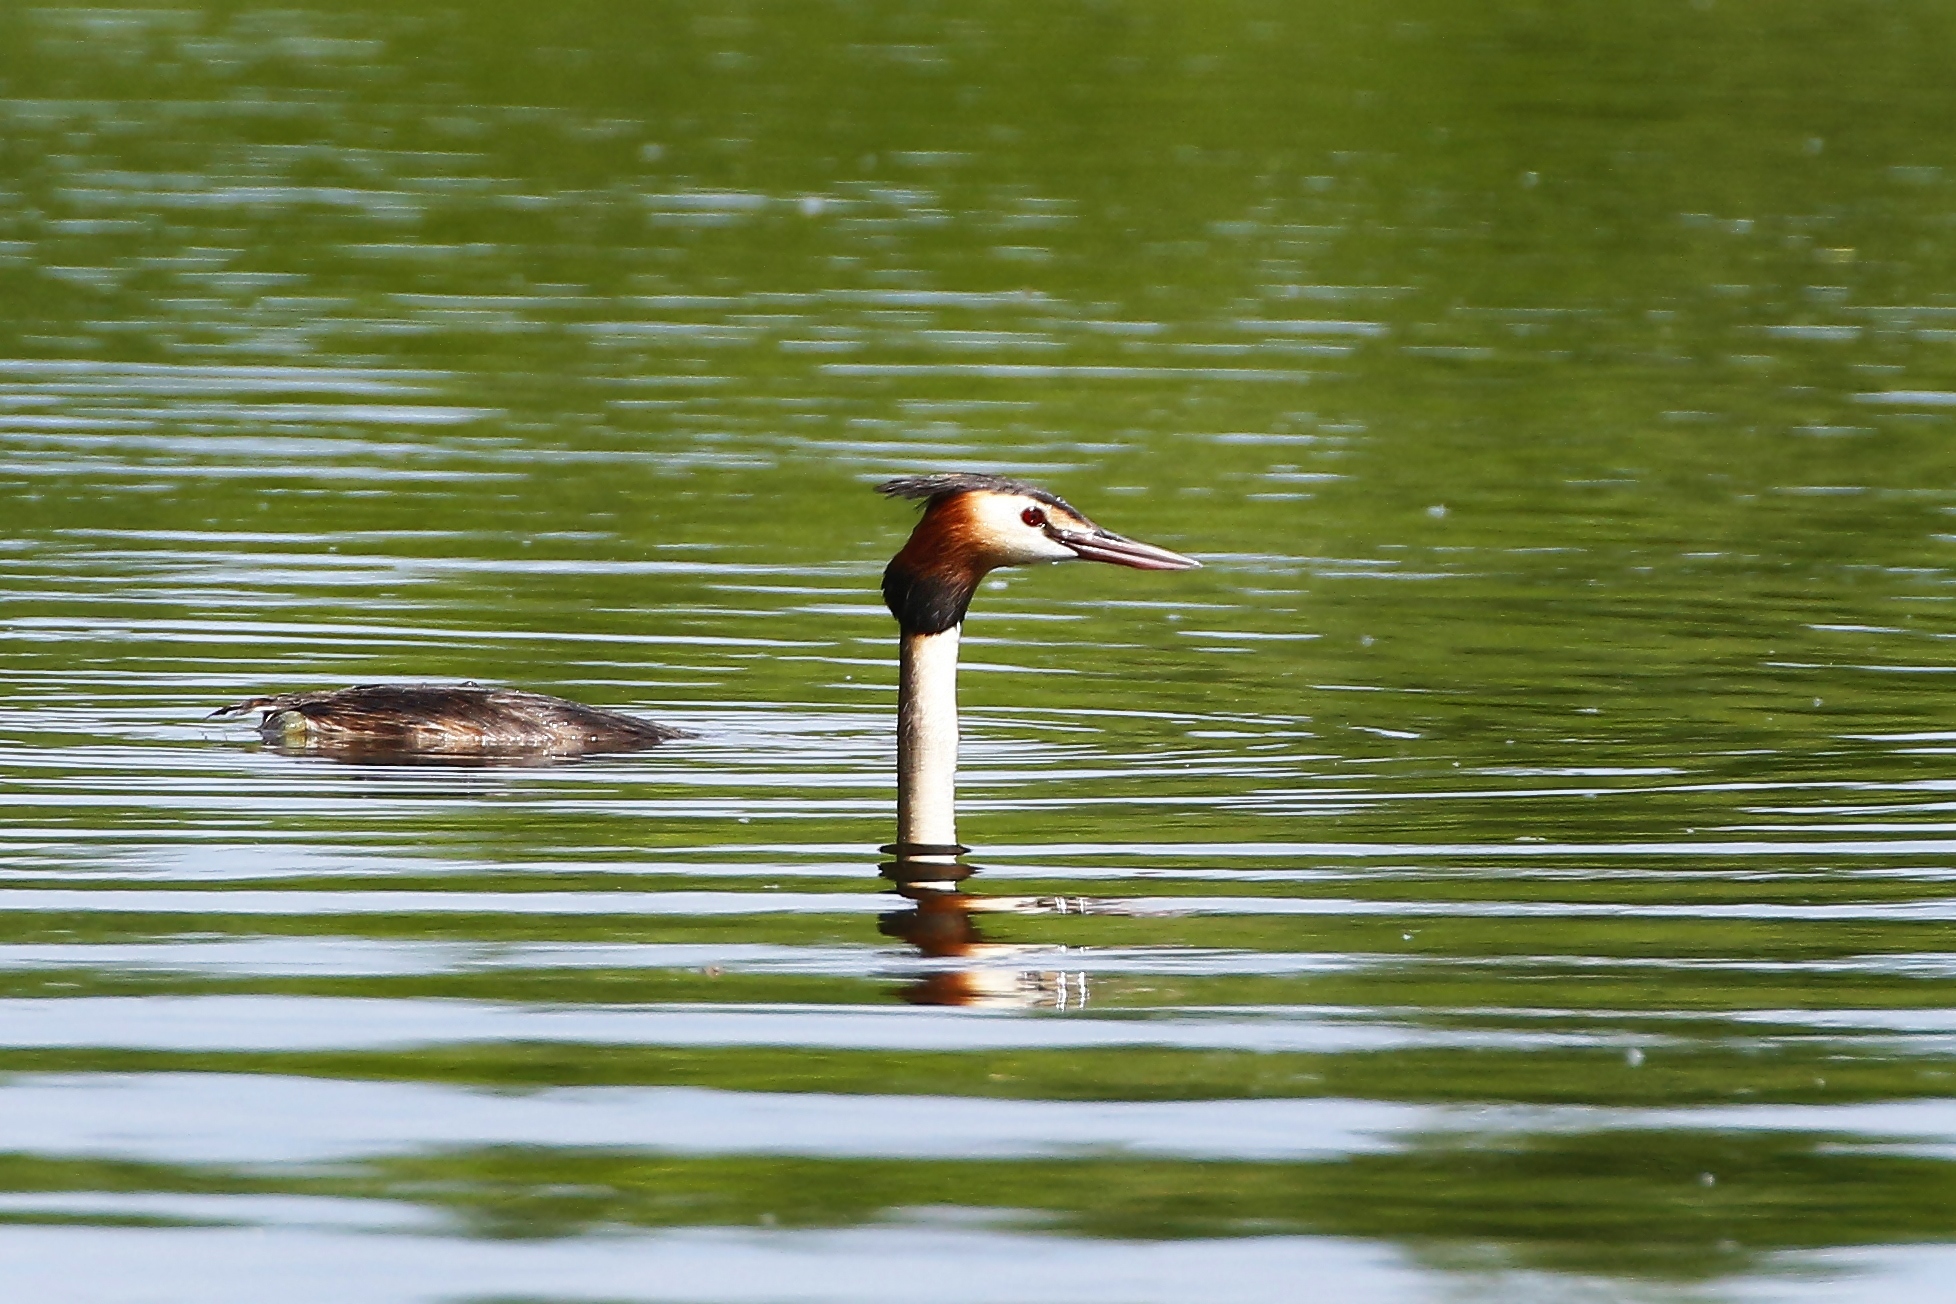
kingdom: Animalia
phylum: Chordata
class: Aves
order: Podicipediformes
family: Podicipedidae
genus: Podiceps
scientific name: Podiceps cristatus
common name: Great crested grebe
